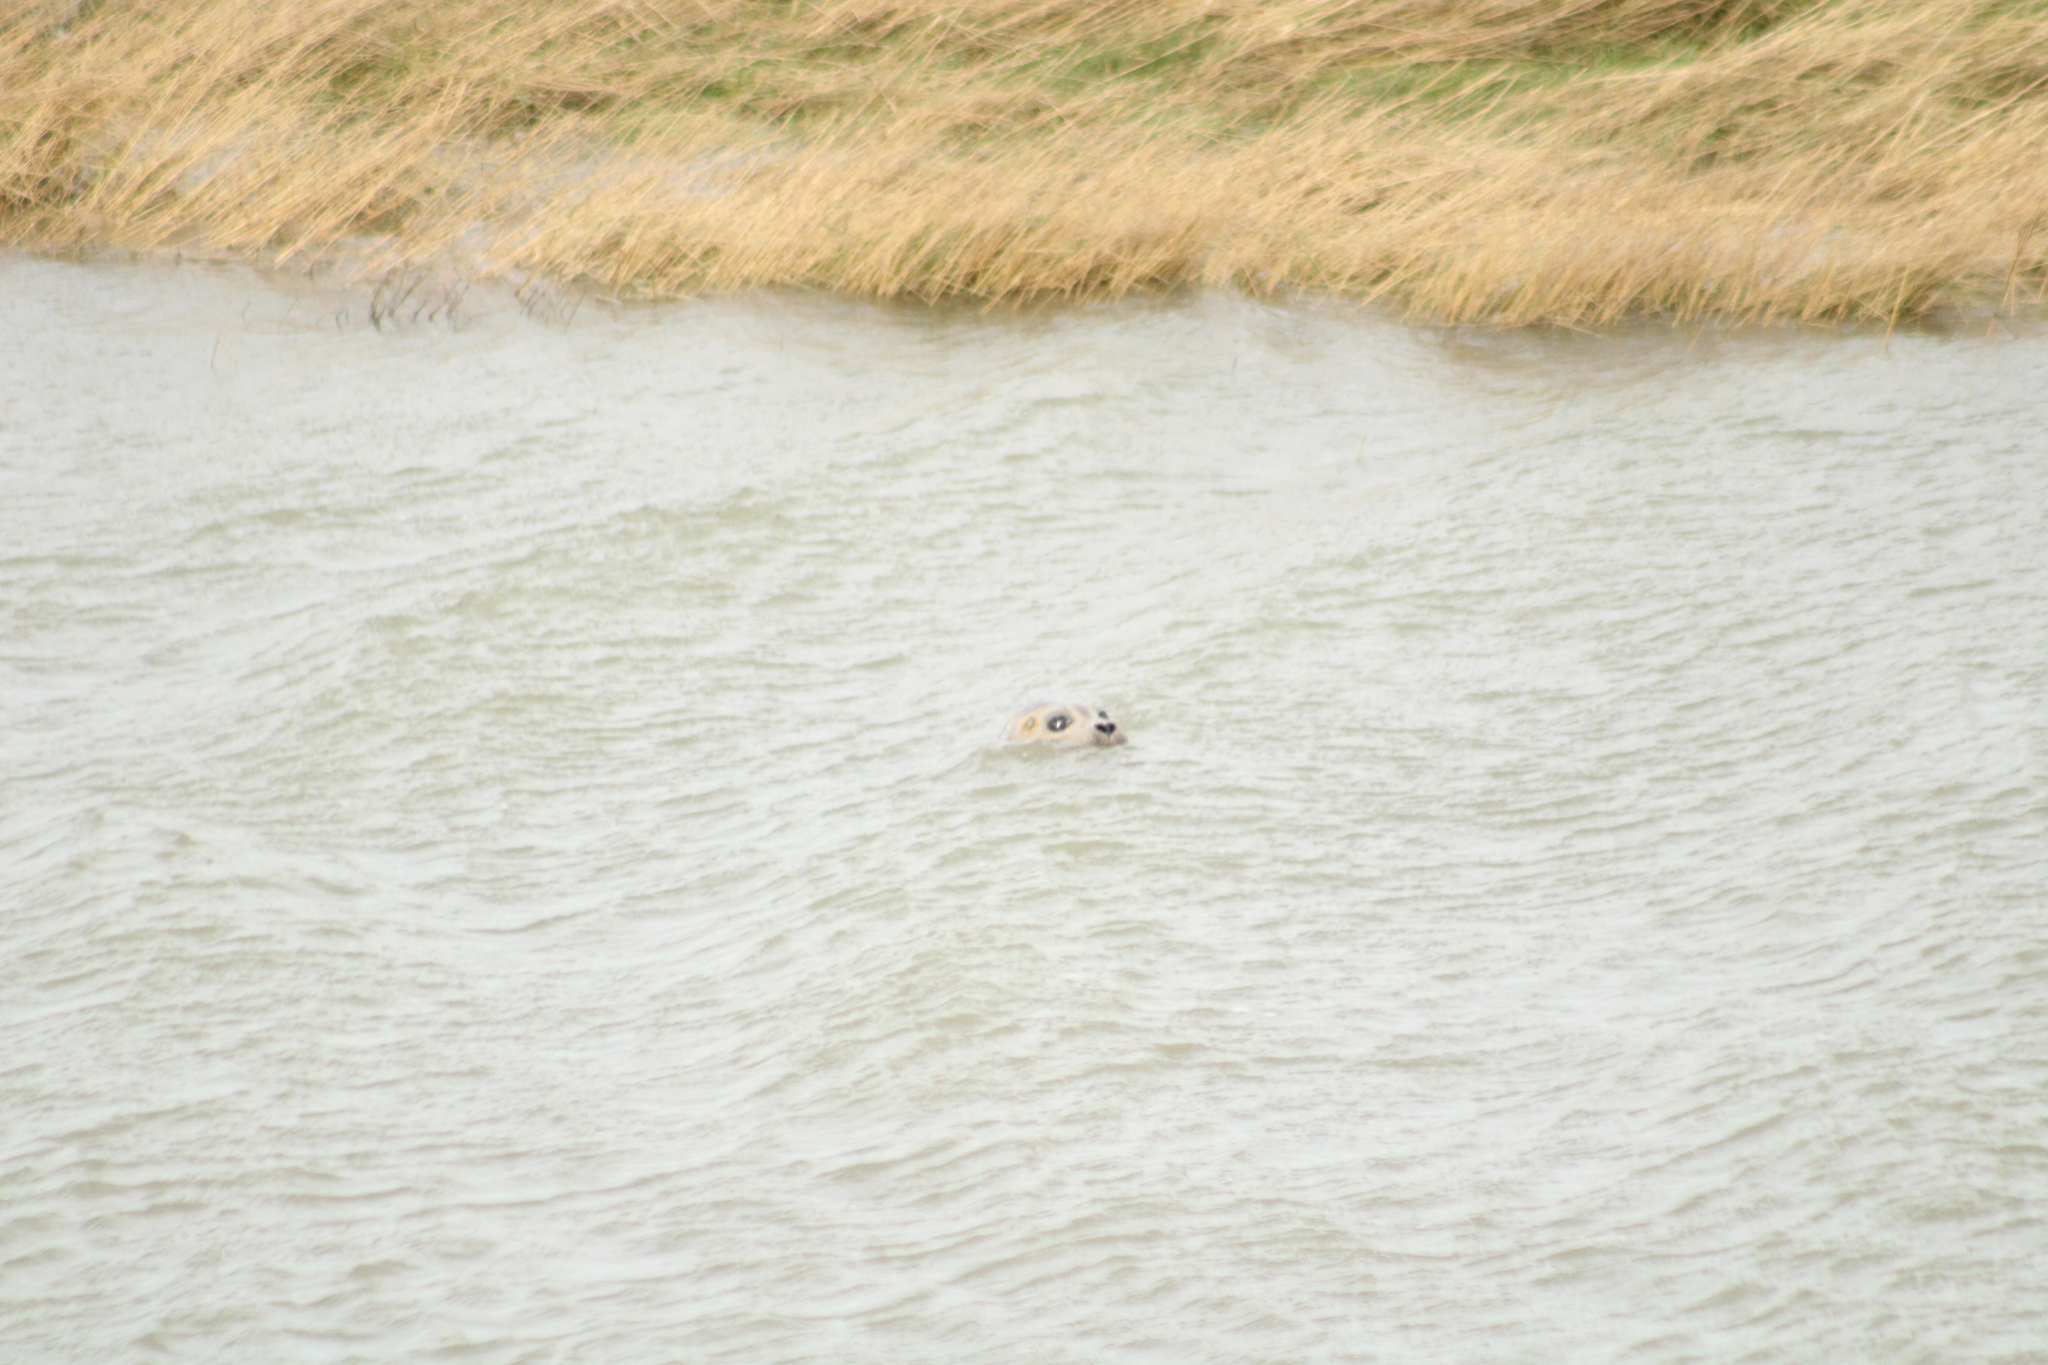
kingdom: Animalia
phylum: Chordata
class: Mammalia
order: Carnivora
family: Phocidae
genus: Phoca
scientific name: Phoca vitulina
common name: Harbor seal
